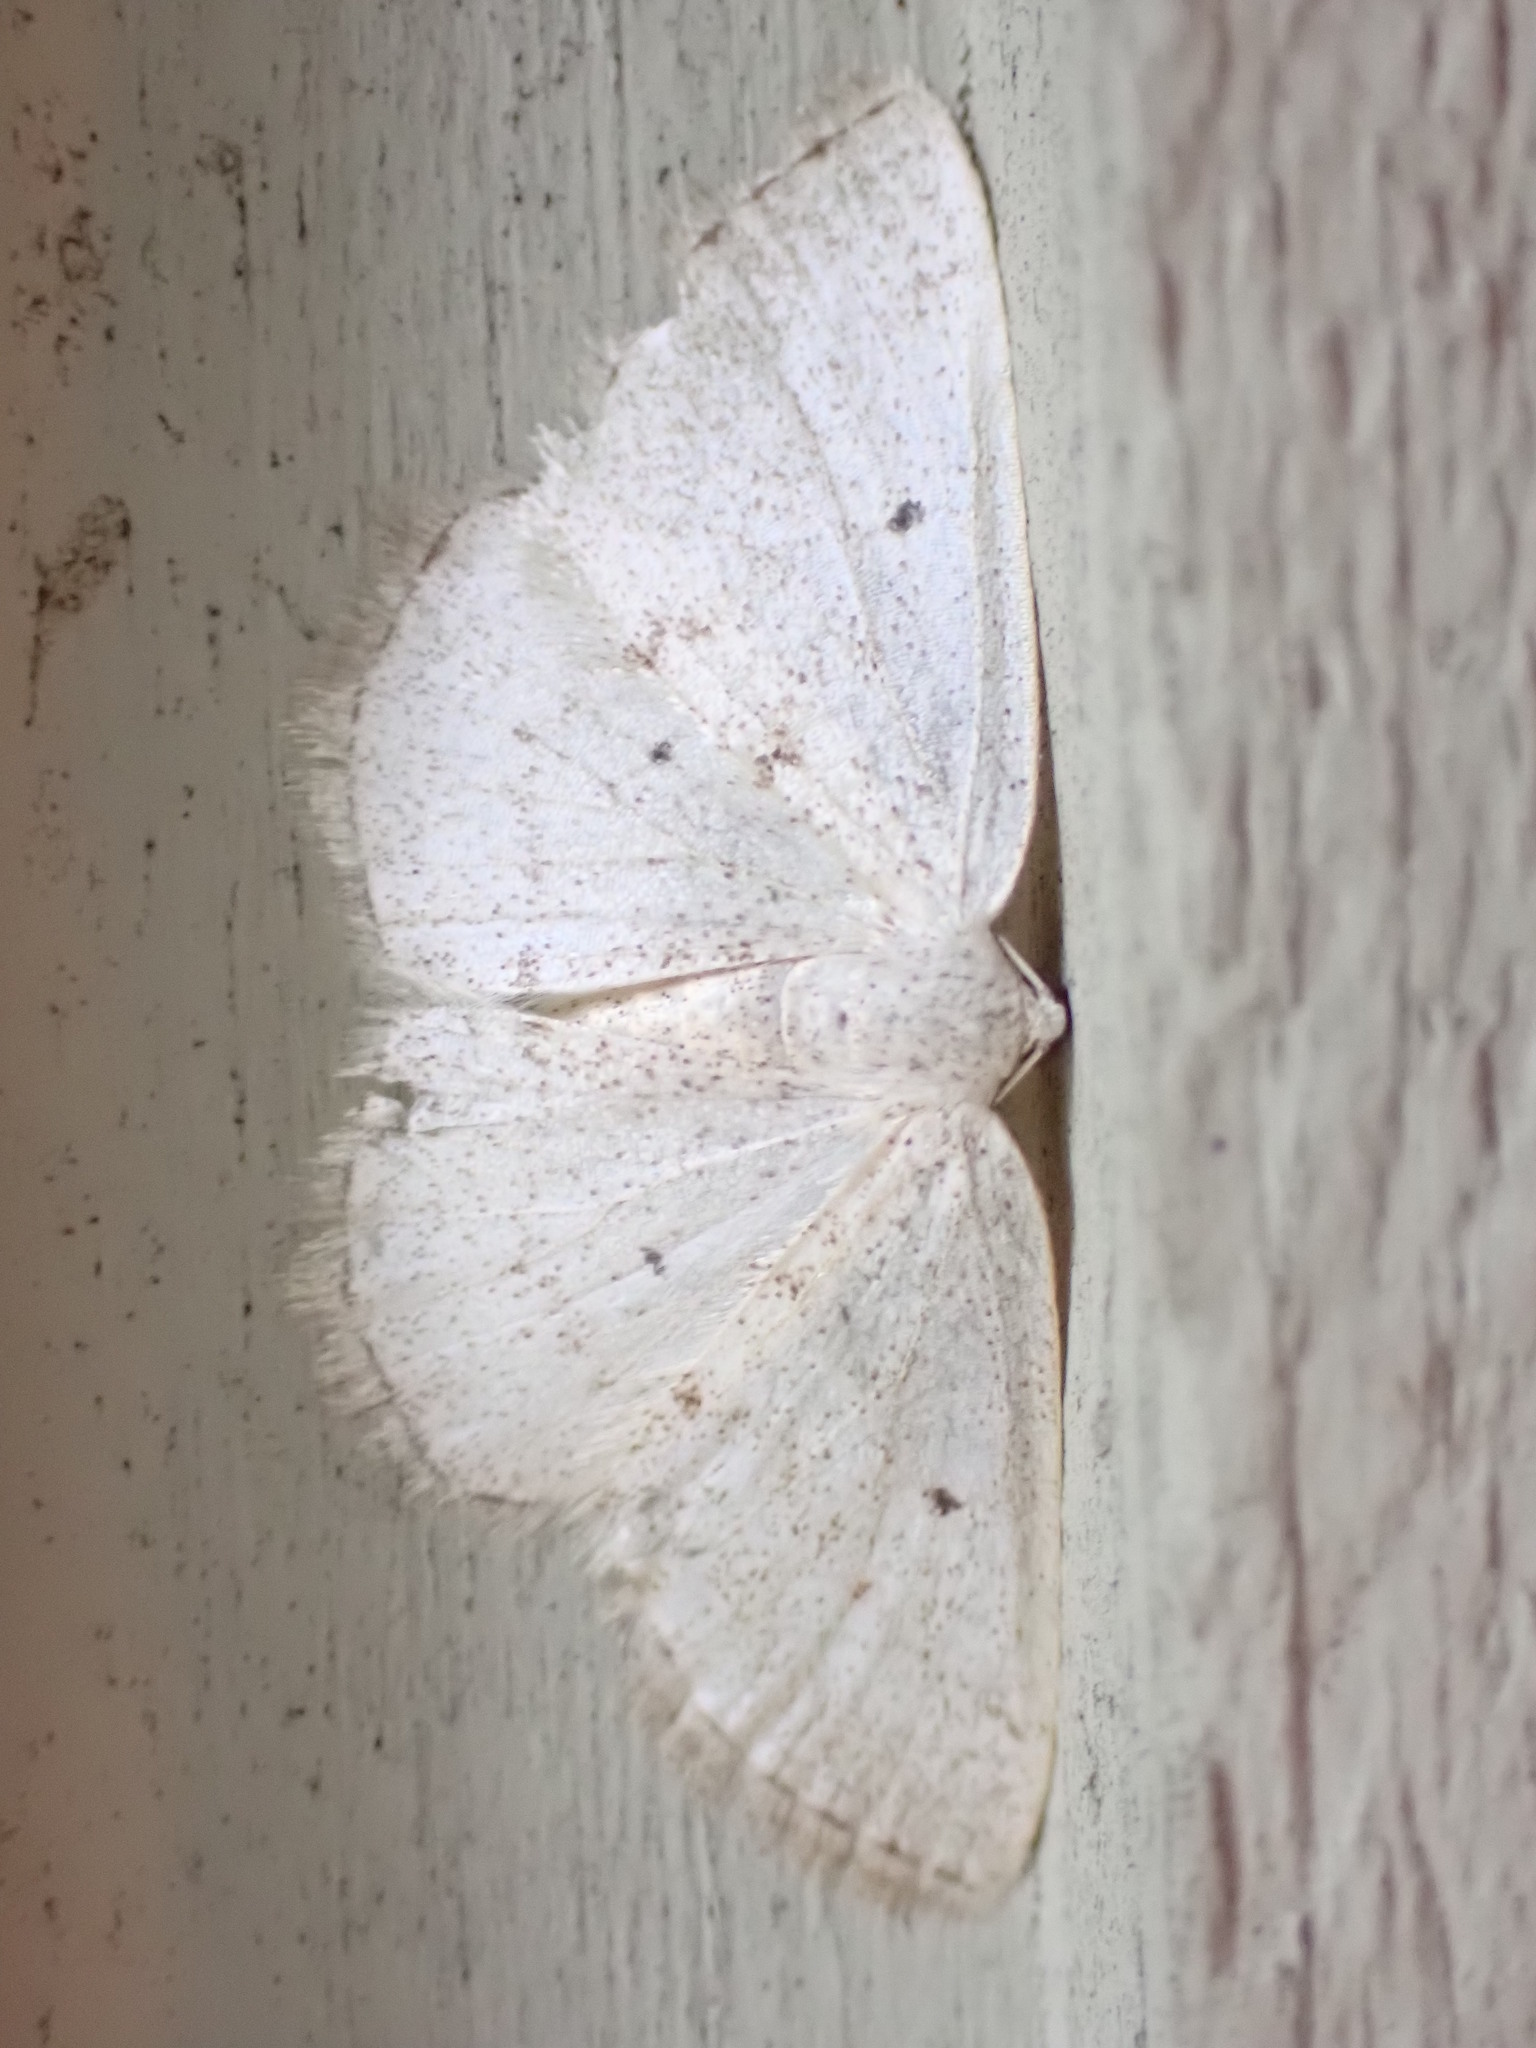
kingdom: Animalia
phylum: Arthropoda
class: Insecta
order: Lepidoptera
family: Geometridae
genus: Lomographa
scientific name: Lomographa glomeraria
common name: Gray spring moth
